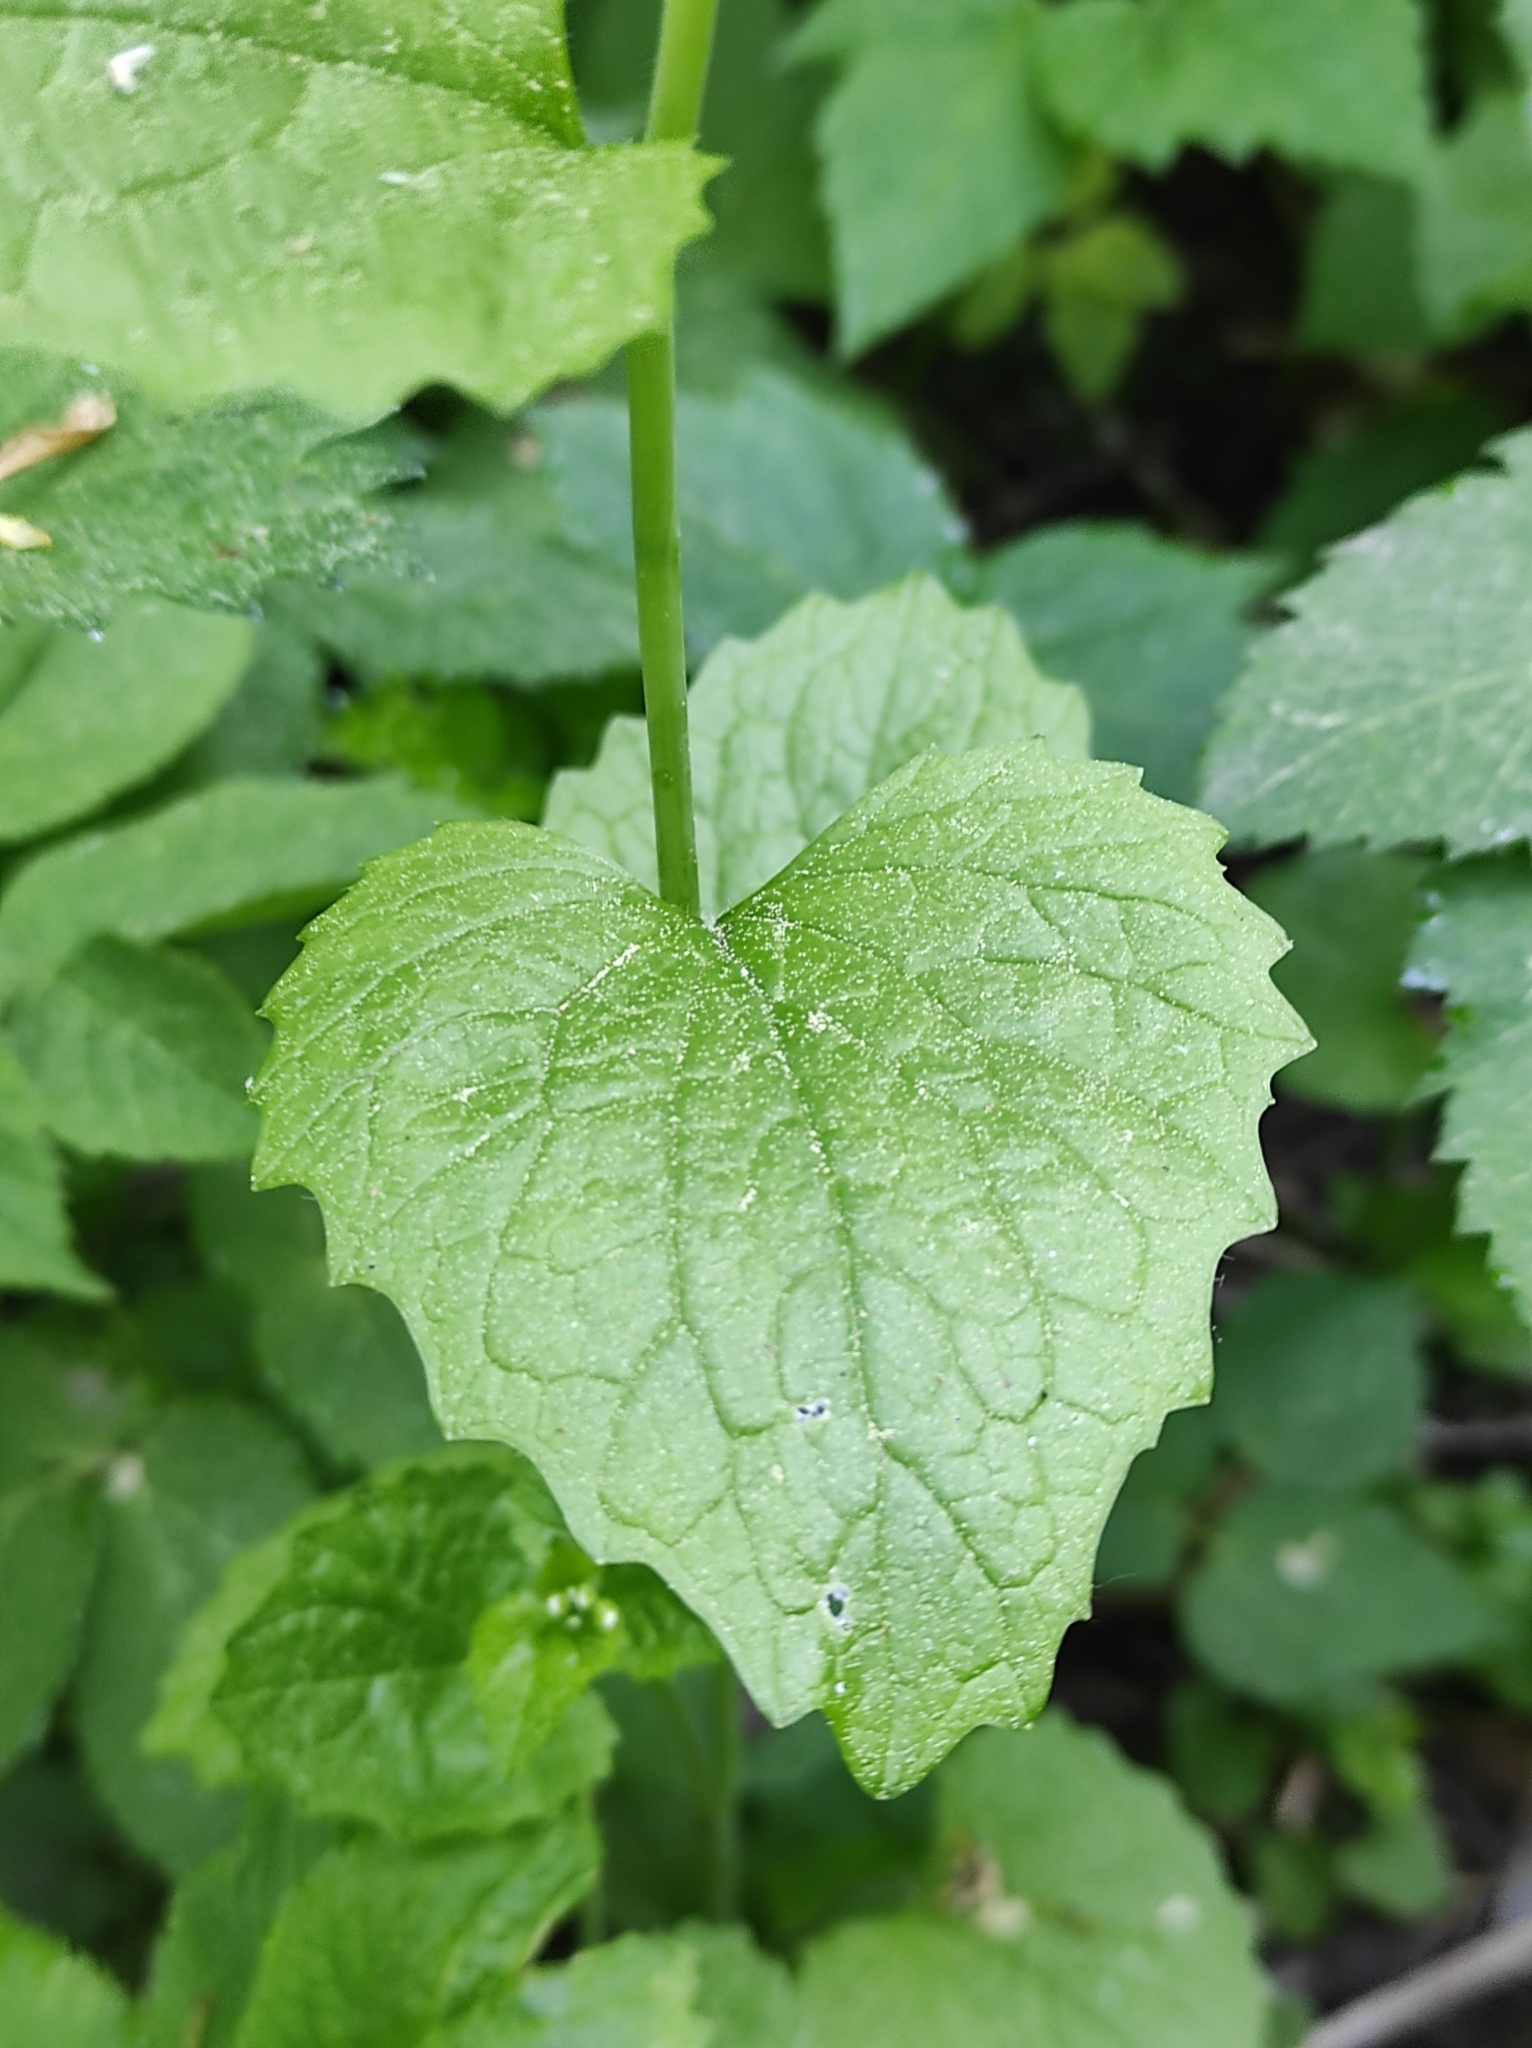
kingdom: Plantae
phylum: Tracheophyta
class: Magnoliopsida
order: Brassicales
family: Brassicaceae
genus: Alliaria
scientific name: Alliaria petiolata
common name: Garlic mustard
